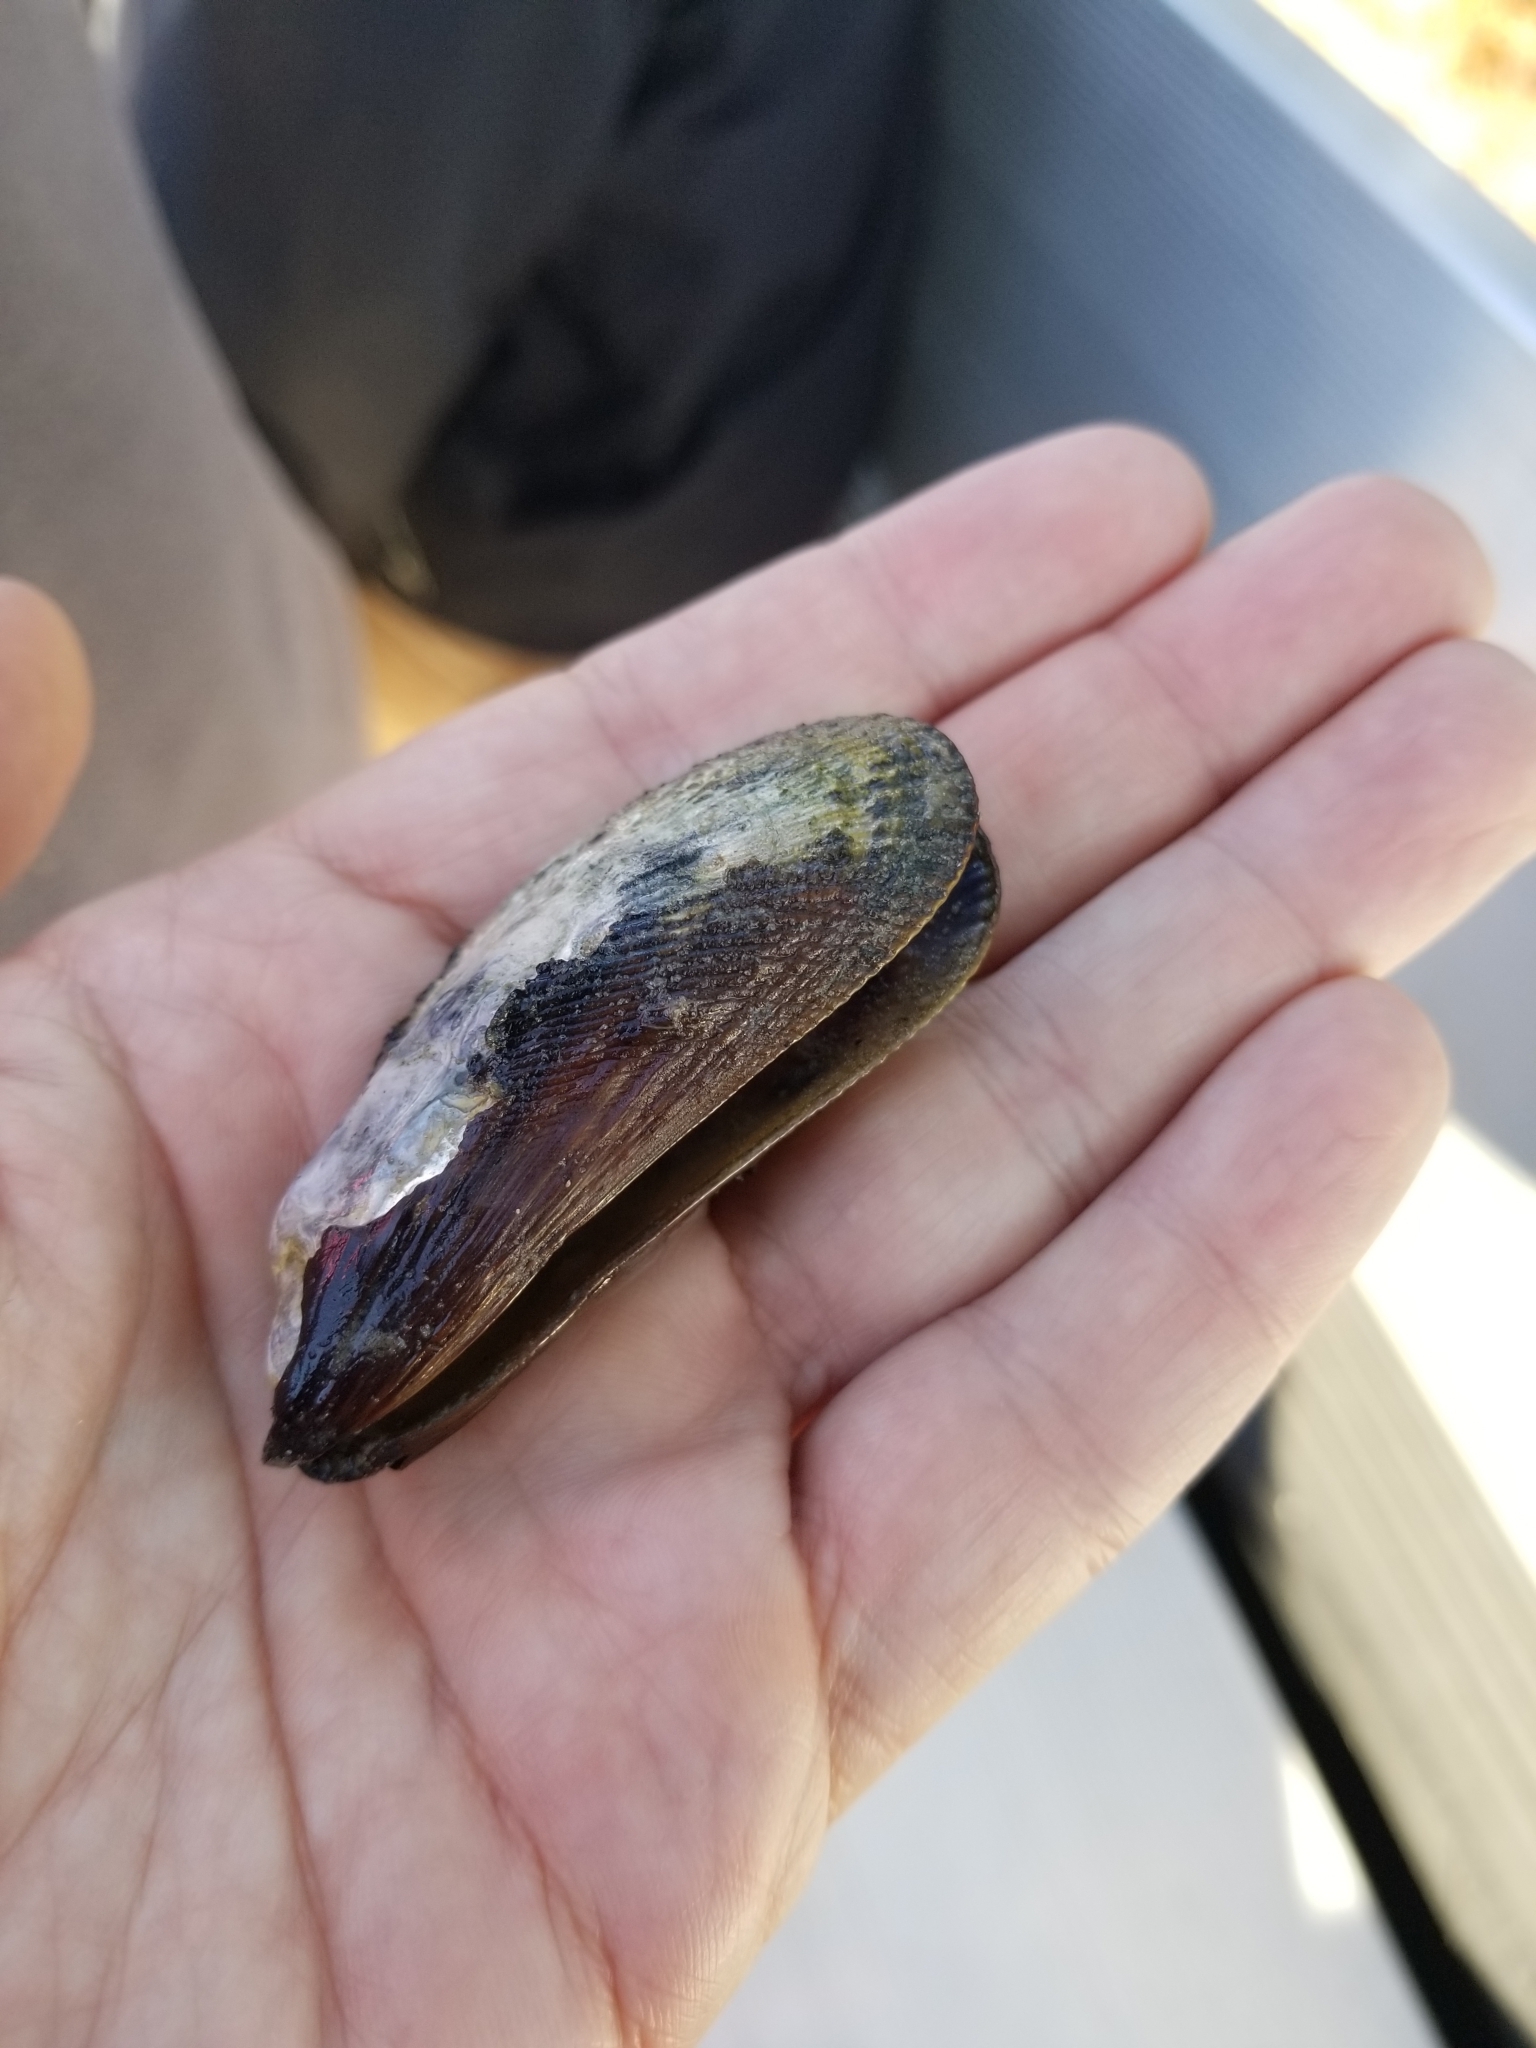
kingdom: Animalia
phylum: Mollusca
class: Bivalvia
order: Mytilida
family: Mytilidae
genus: Geukensia
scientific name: Geukensia demissa
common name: Ribbed mussel
